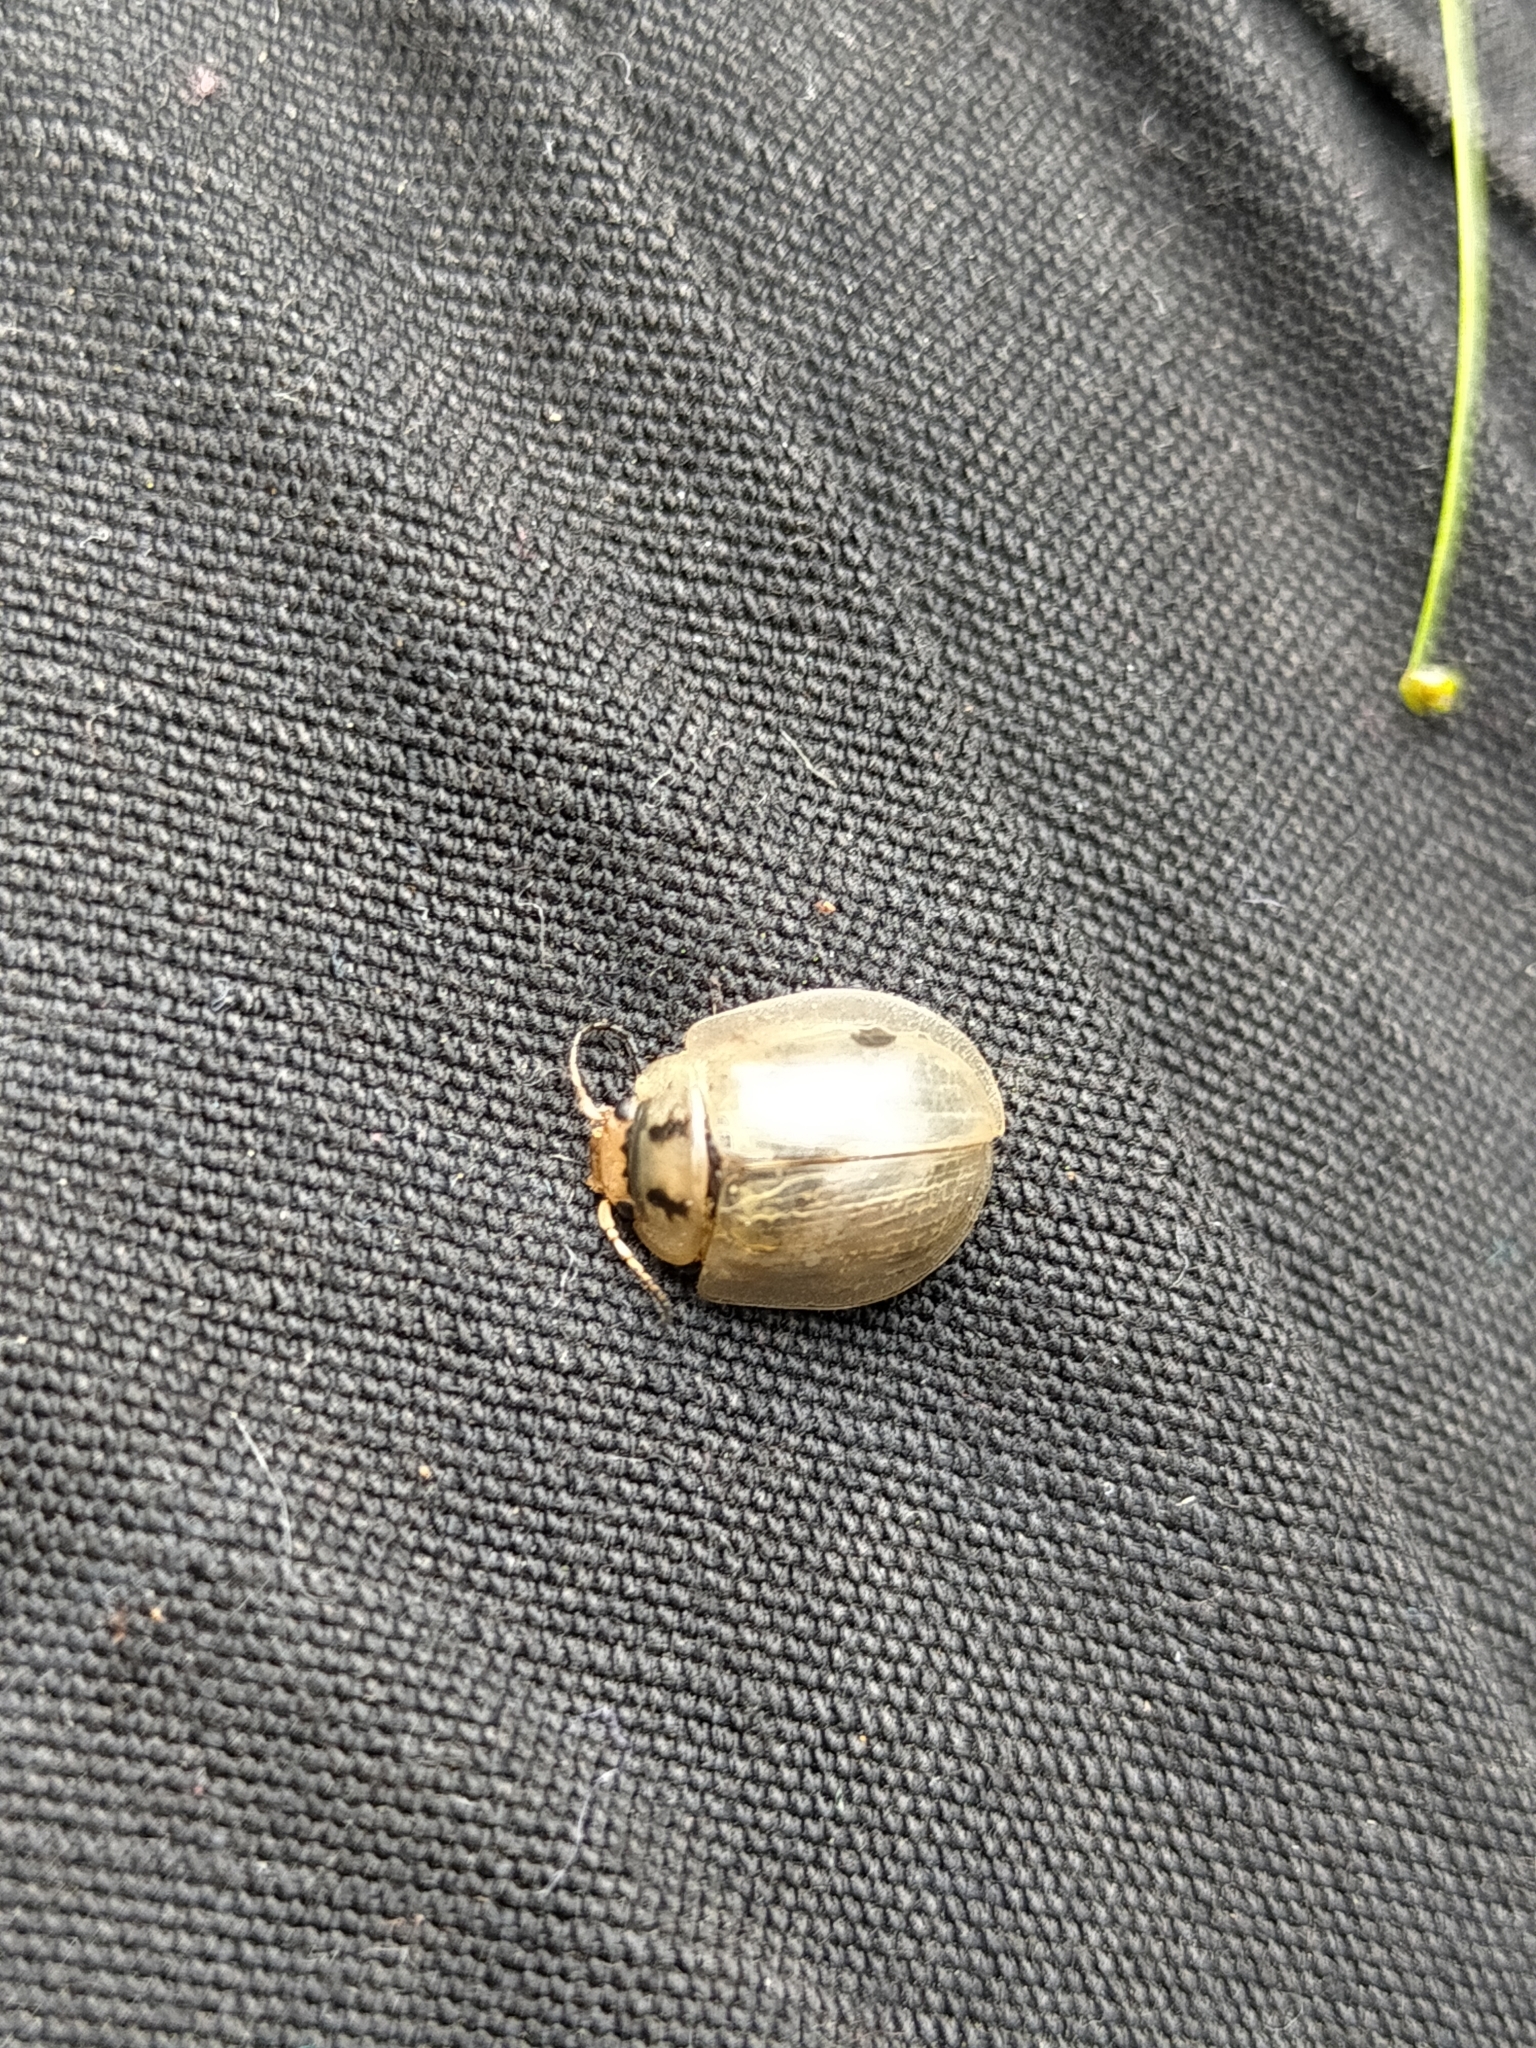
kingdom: Animalia
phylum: Arthropoda
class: Insecta
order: Coleoptera
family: Chrysomelidae
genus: Paropsisterna
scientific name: Paropsisterna bimaculata
